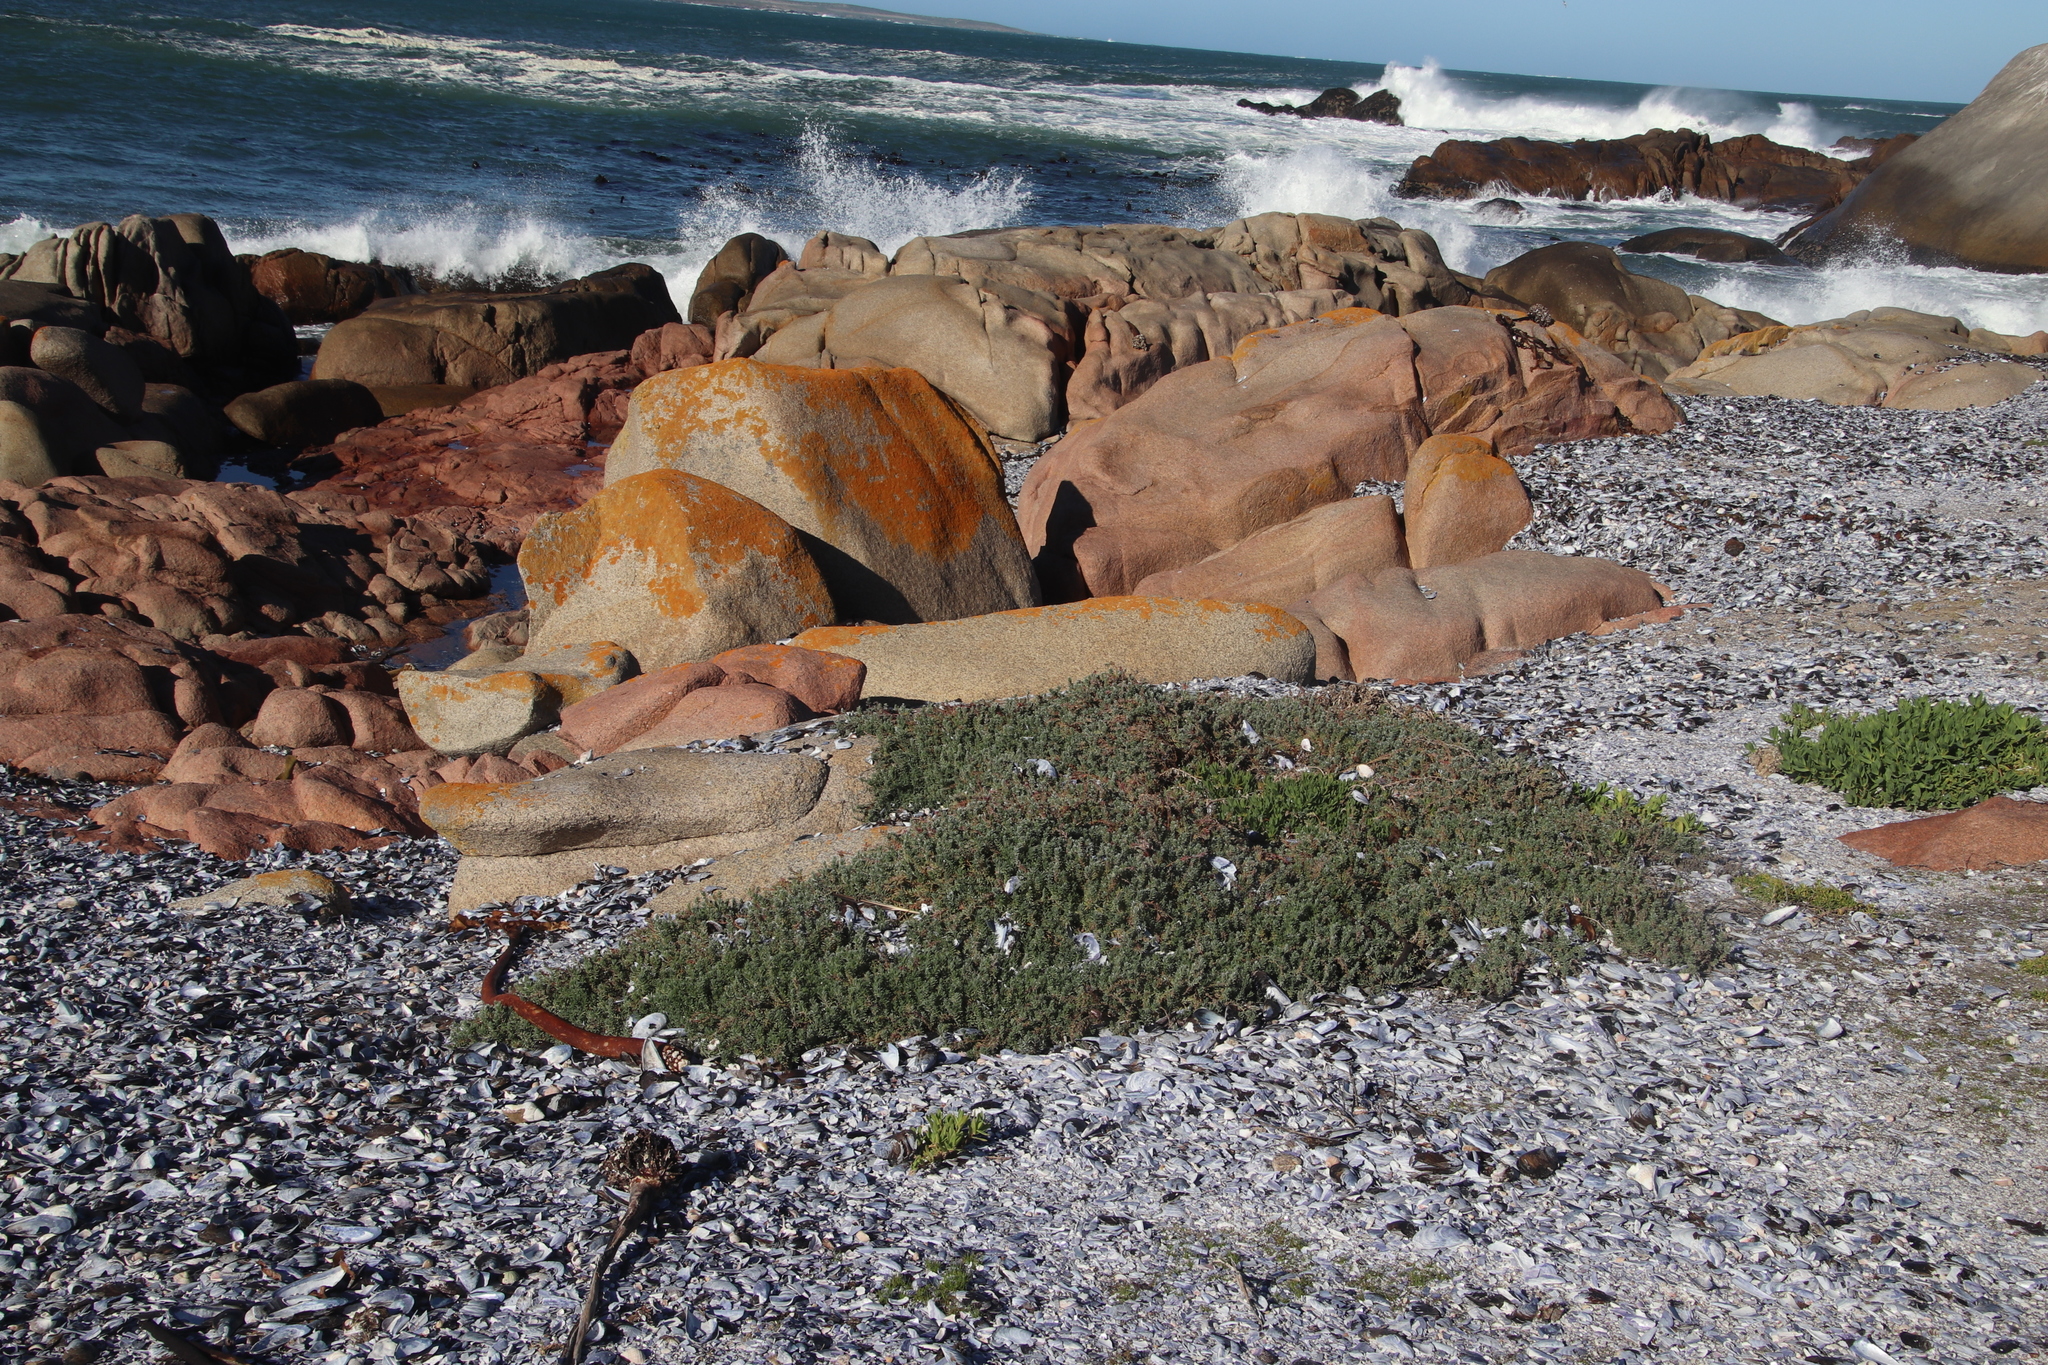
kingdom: Plantae
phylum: Tracheophyta
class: Magnoliopsida
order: Caryophyllales
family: Amaranthaceae
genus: Chenolea
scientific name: Chenolea diffusa
